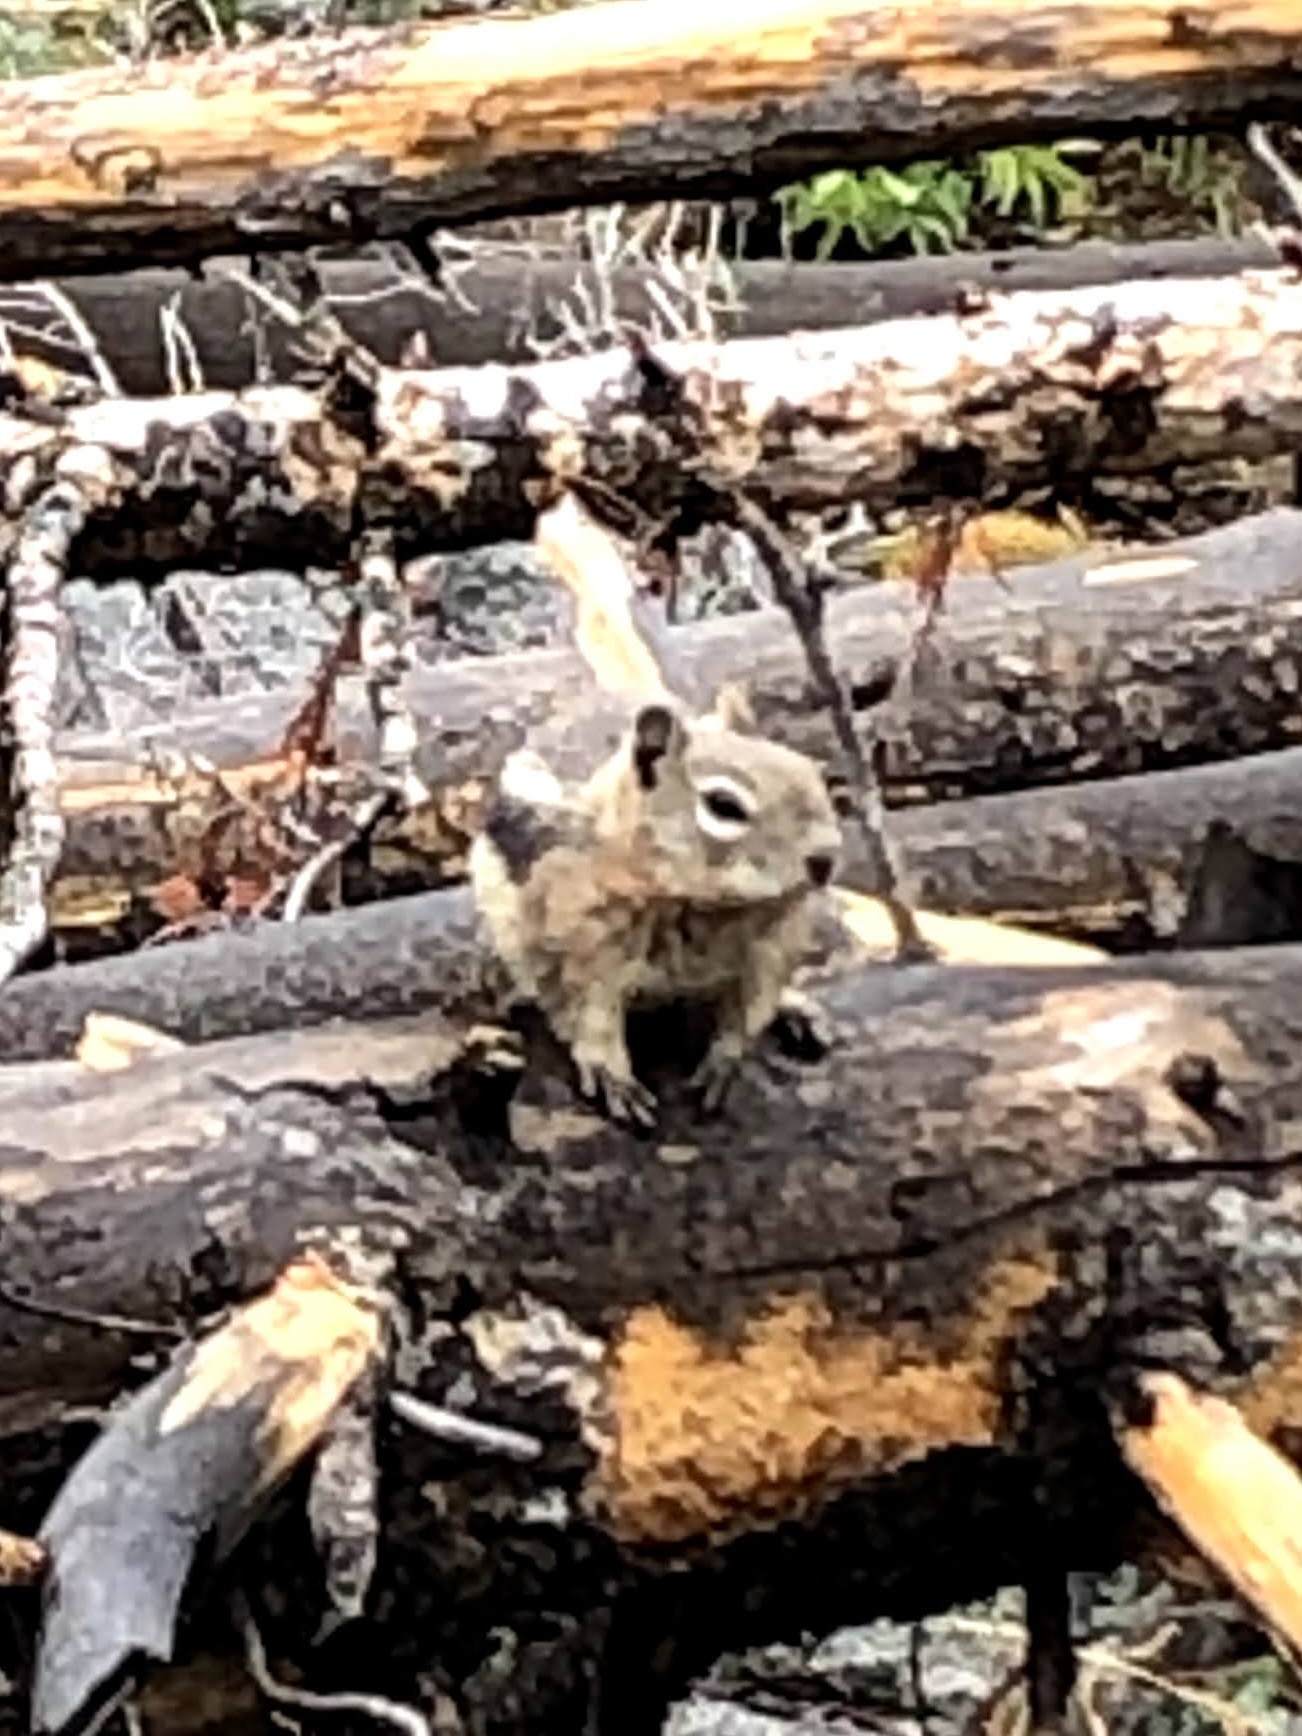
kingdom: Animalia
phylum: Chordata
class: Mammalia
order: Rodentia
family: Sciuridae
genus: Callospermophilus
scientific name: Callospermophilus lateralis
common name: Golden-mantled ground squirrel
